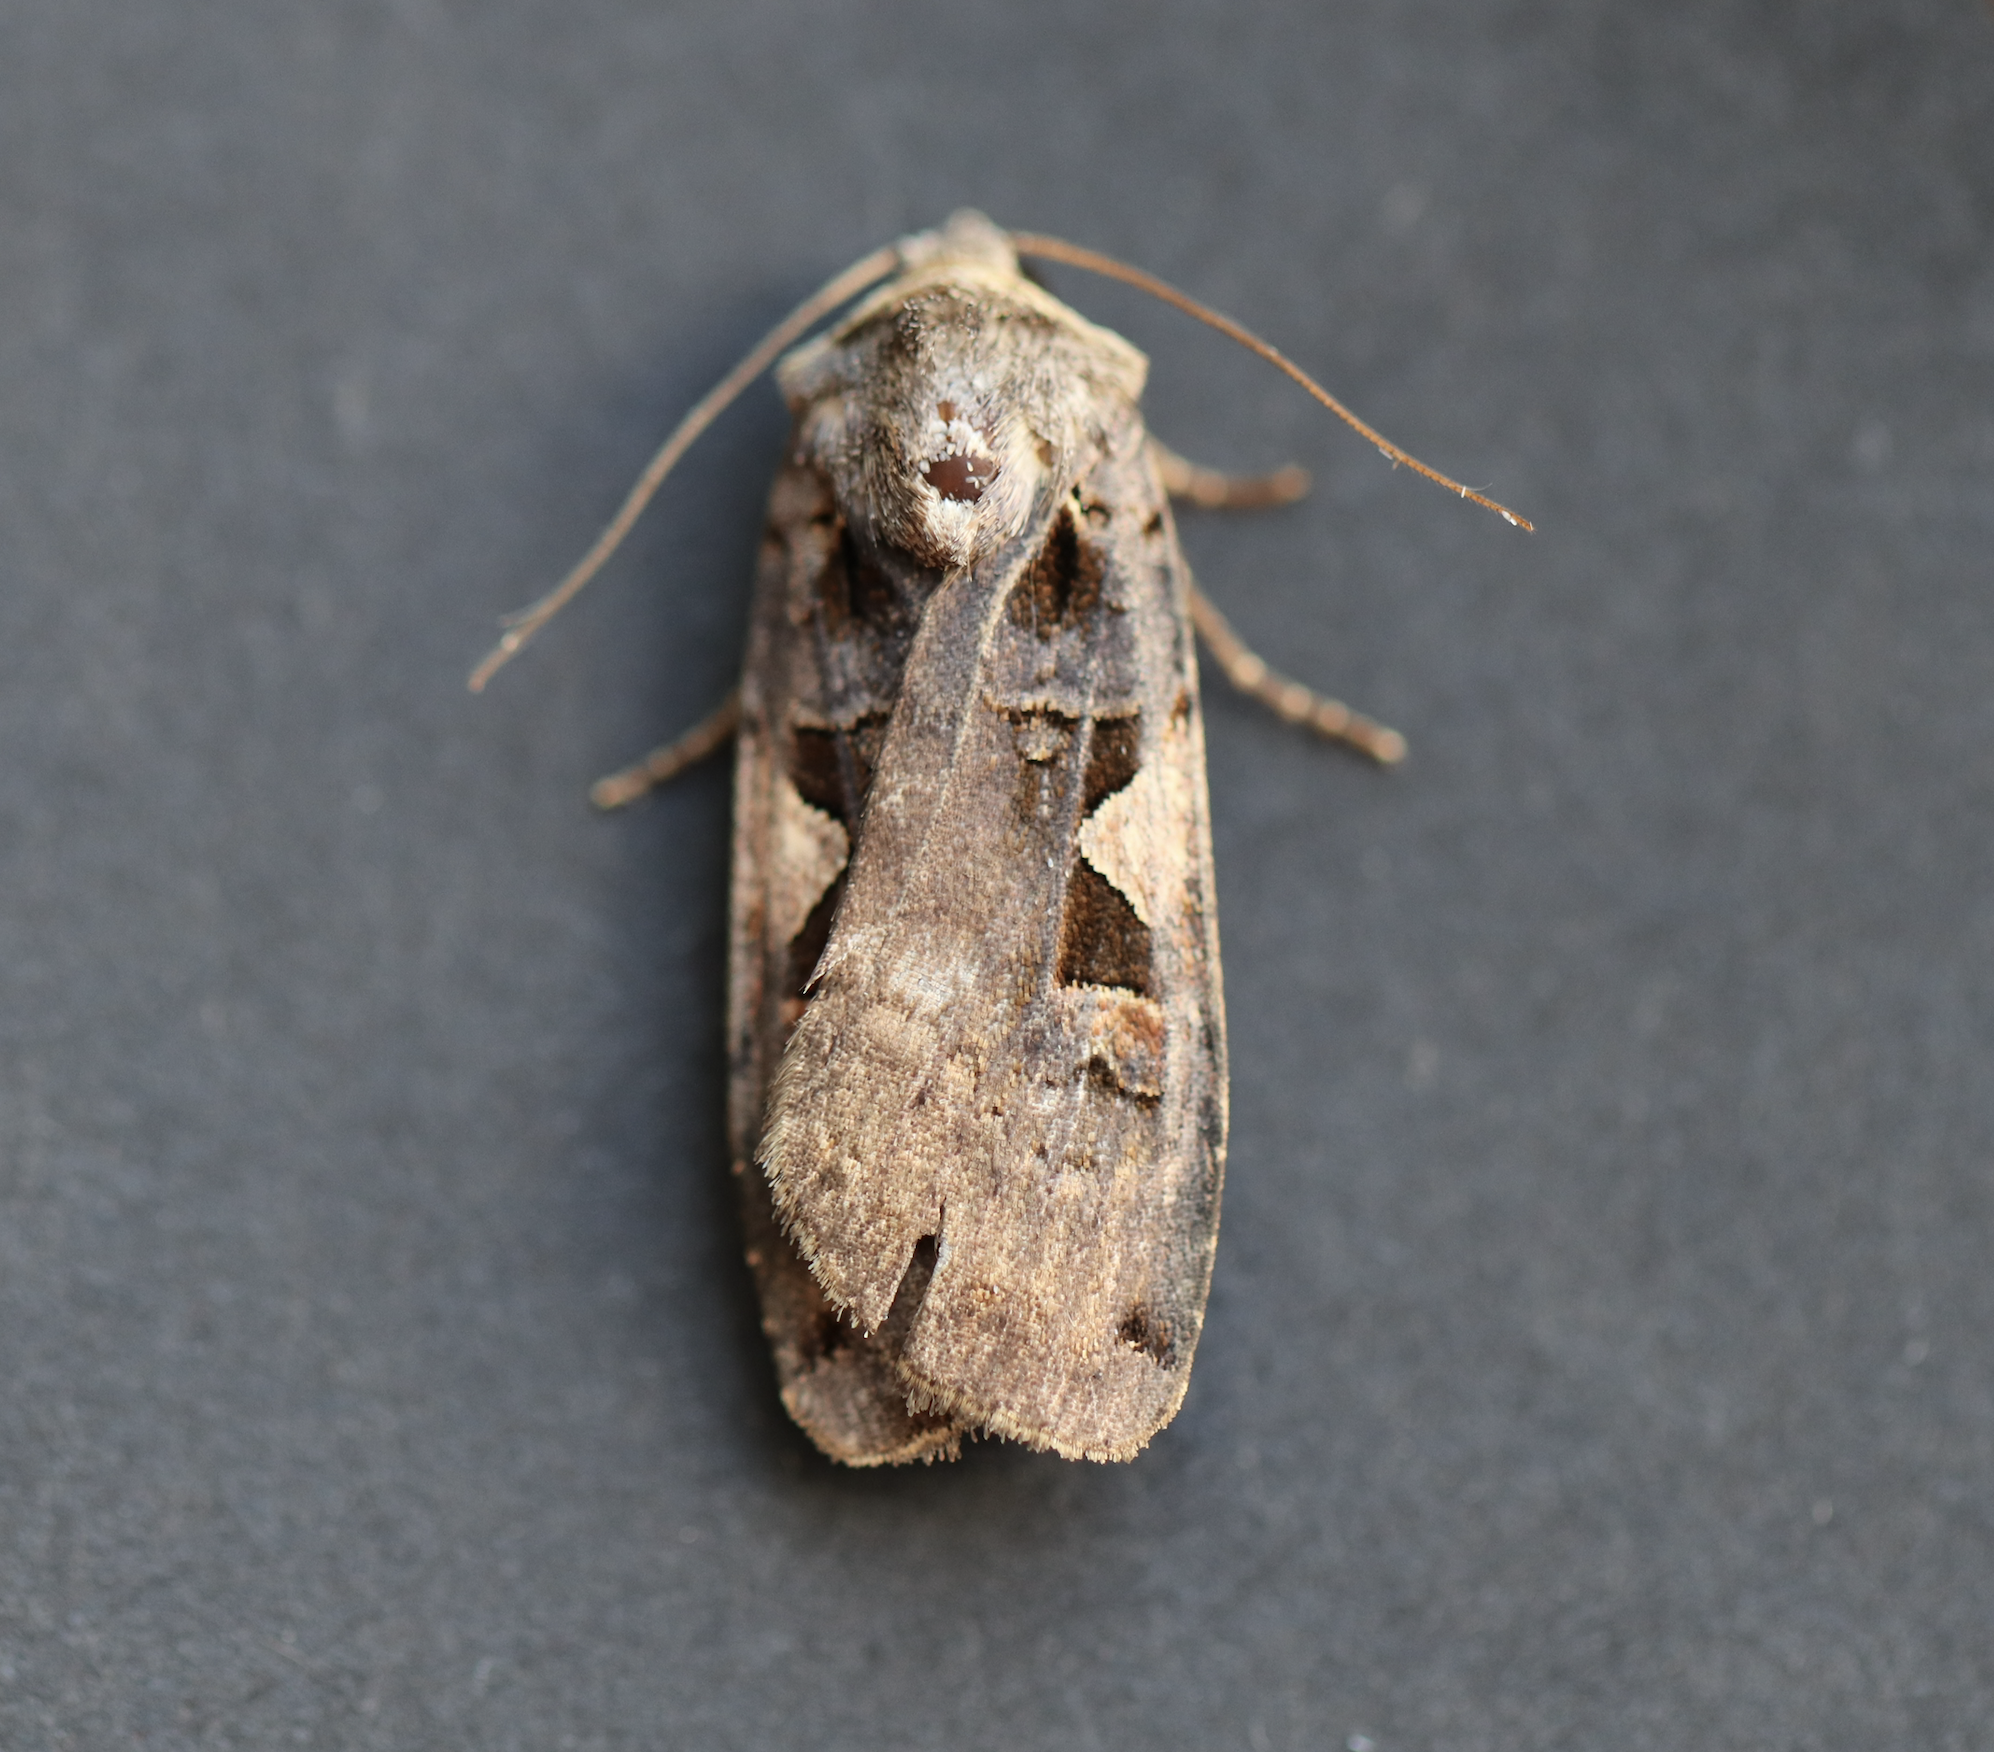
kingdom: Animalia
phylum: Arthropoda
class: Insecta
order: Lepidoptera
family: Noctuidae
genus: Xestia
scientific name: Xestia c-nigrum
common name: Setaceous hebrew character
